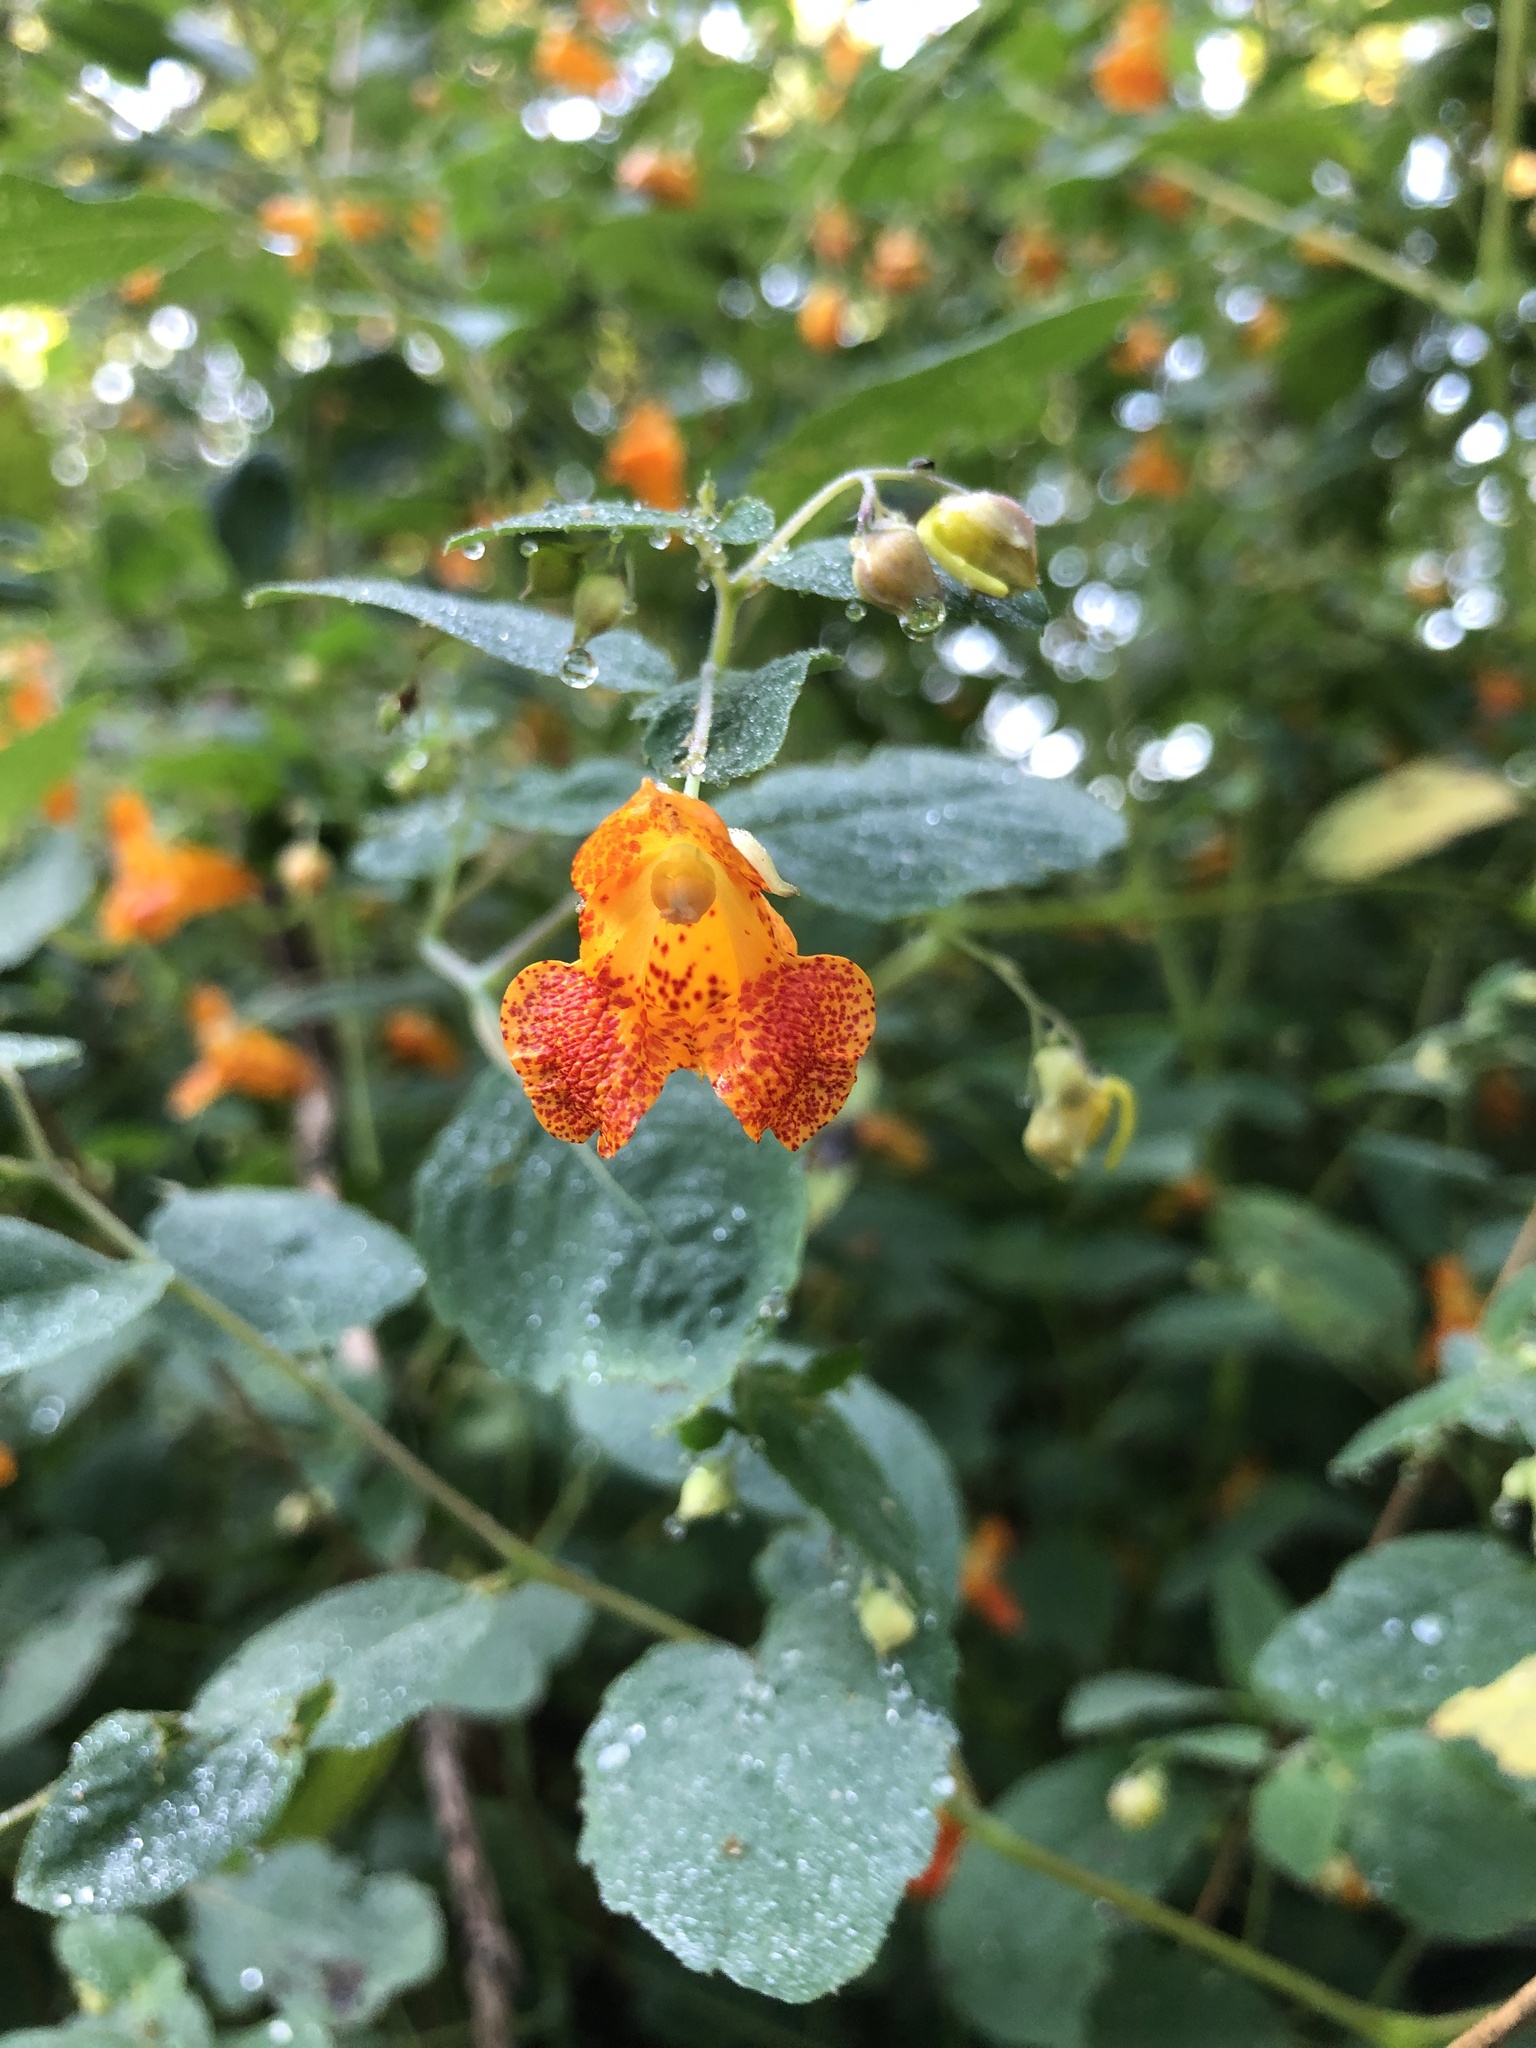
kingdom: Plantae
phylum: Tracheophyta
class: Magnoliopsida
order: Ericales
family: Balsaminaceae
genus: Impatiens
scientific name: Impatiens capensis
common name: Orange balsam
